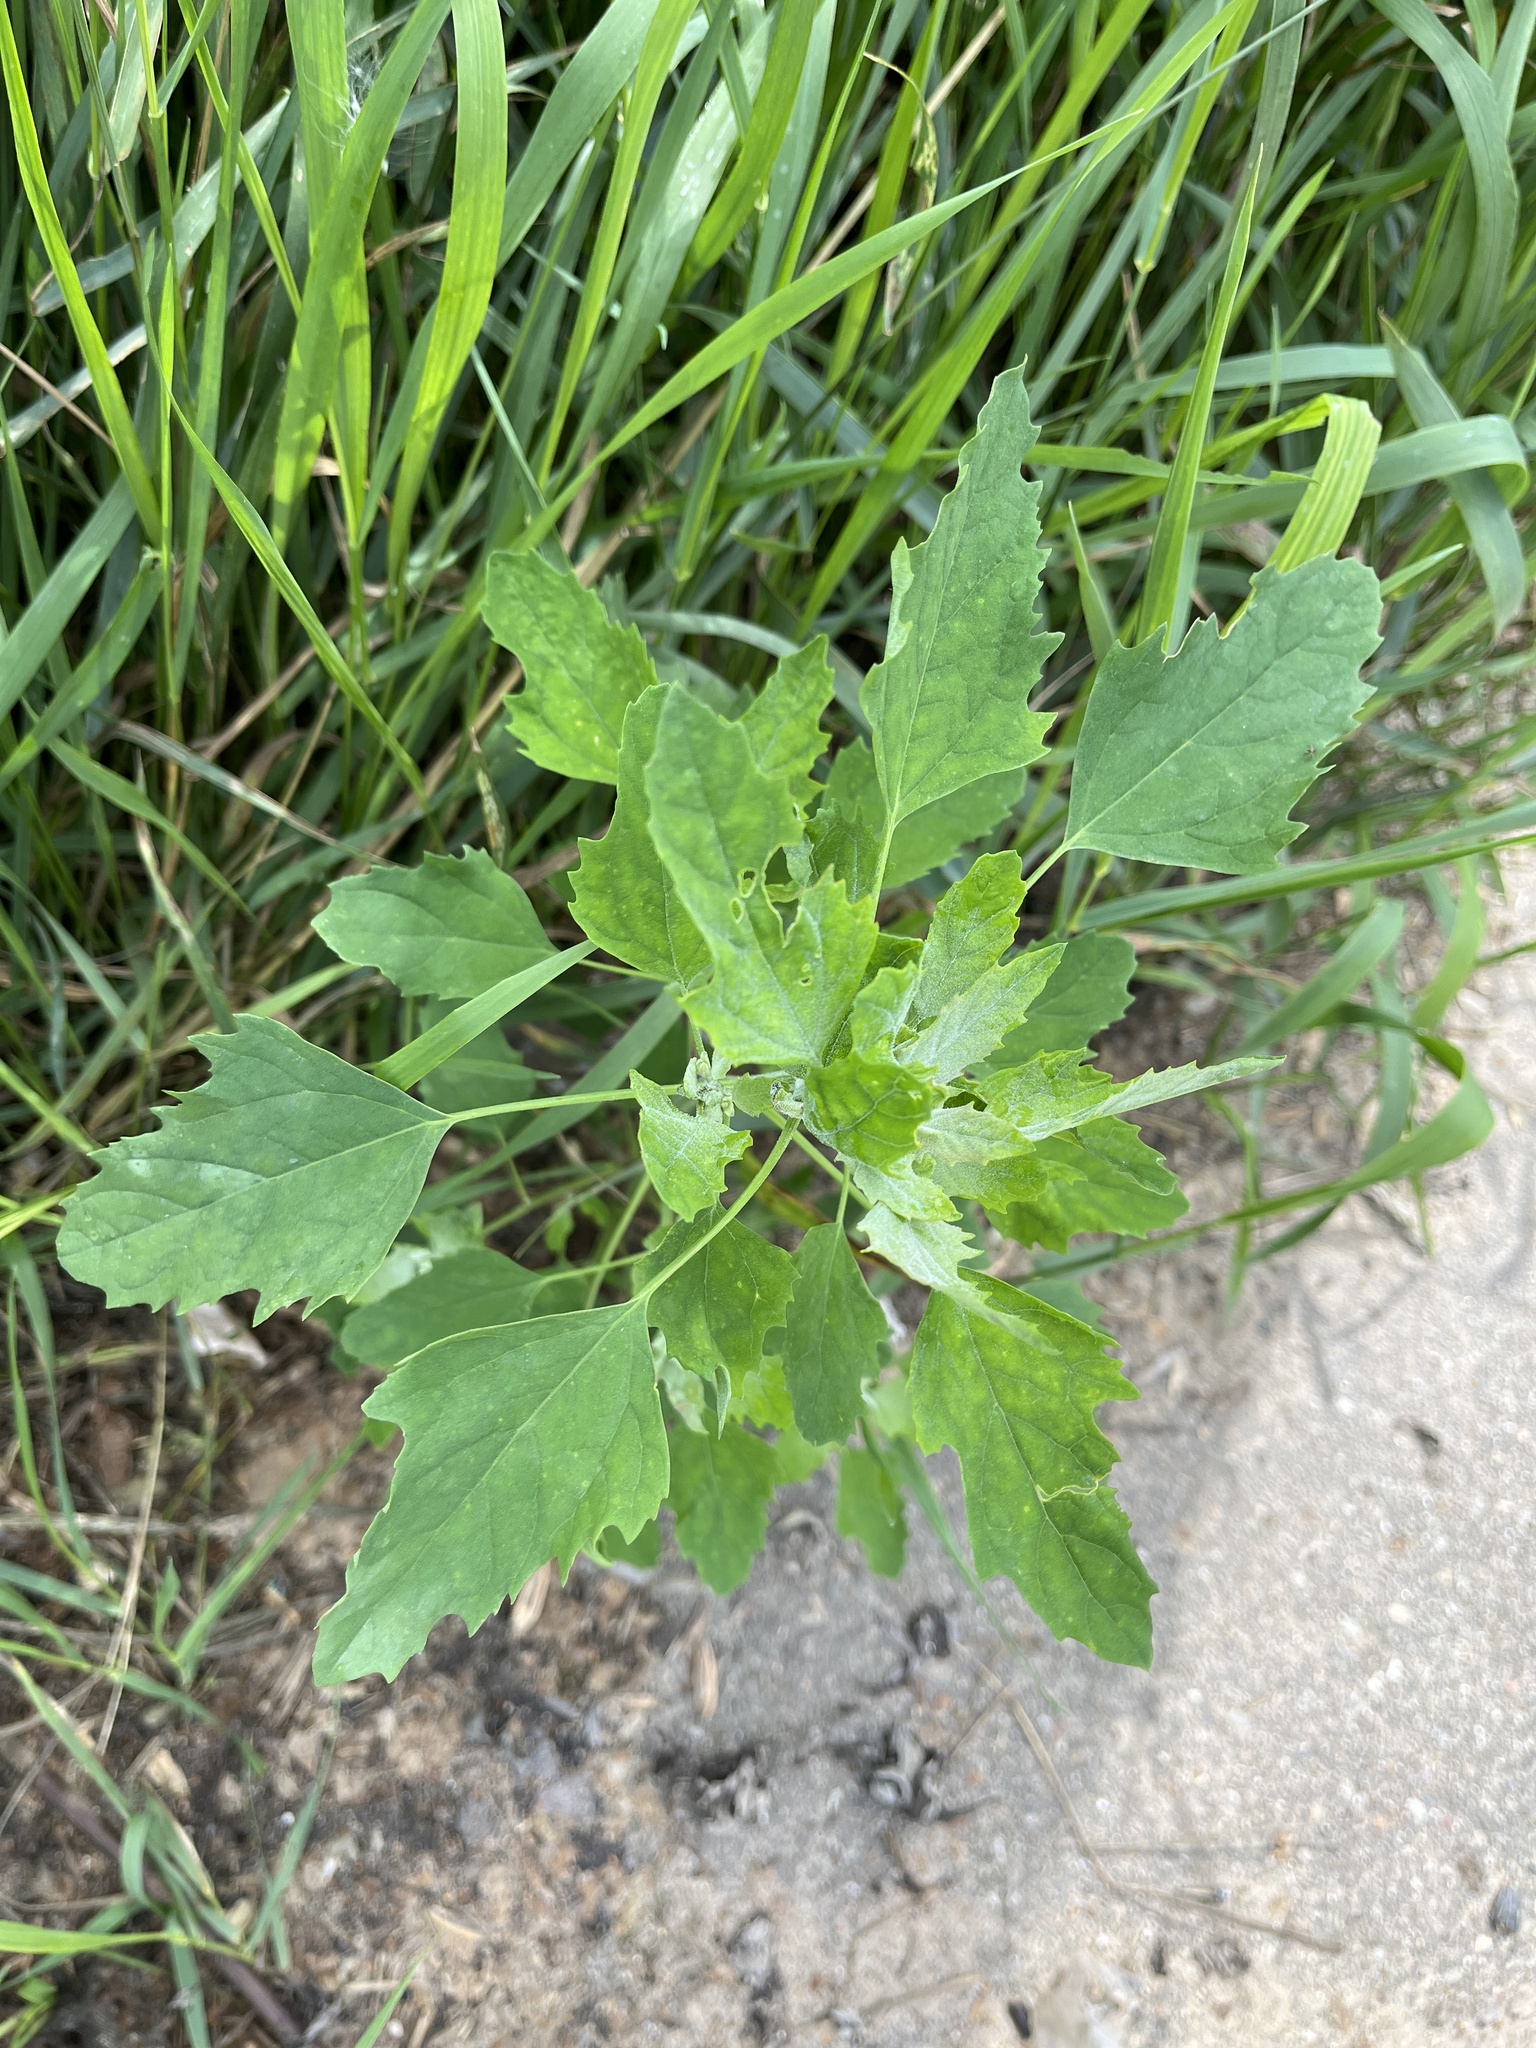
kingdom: Plantae
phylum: Tracheophyta
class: Magnoliopsida
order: Caryophyllales
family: Amaranthaceae
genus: Chenopodium
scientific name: Chenopodium album
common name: Fat-hen
